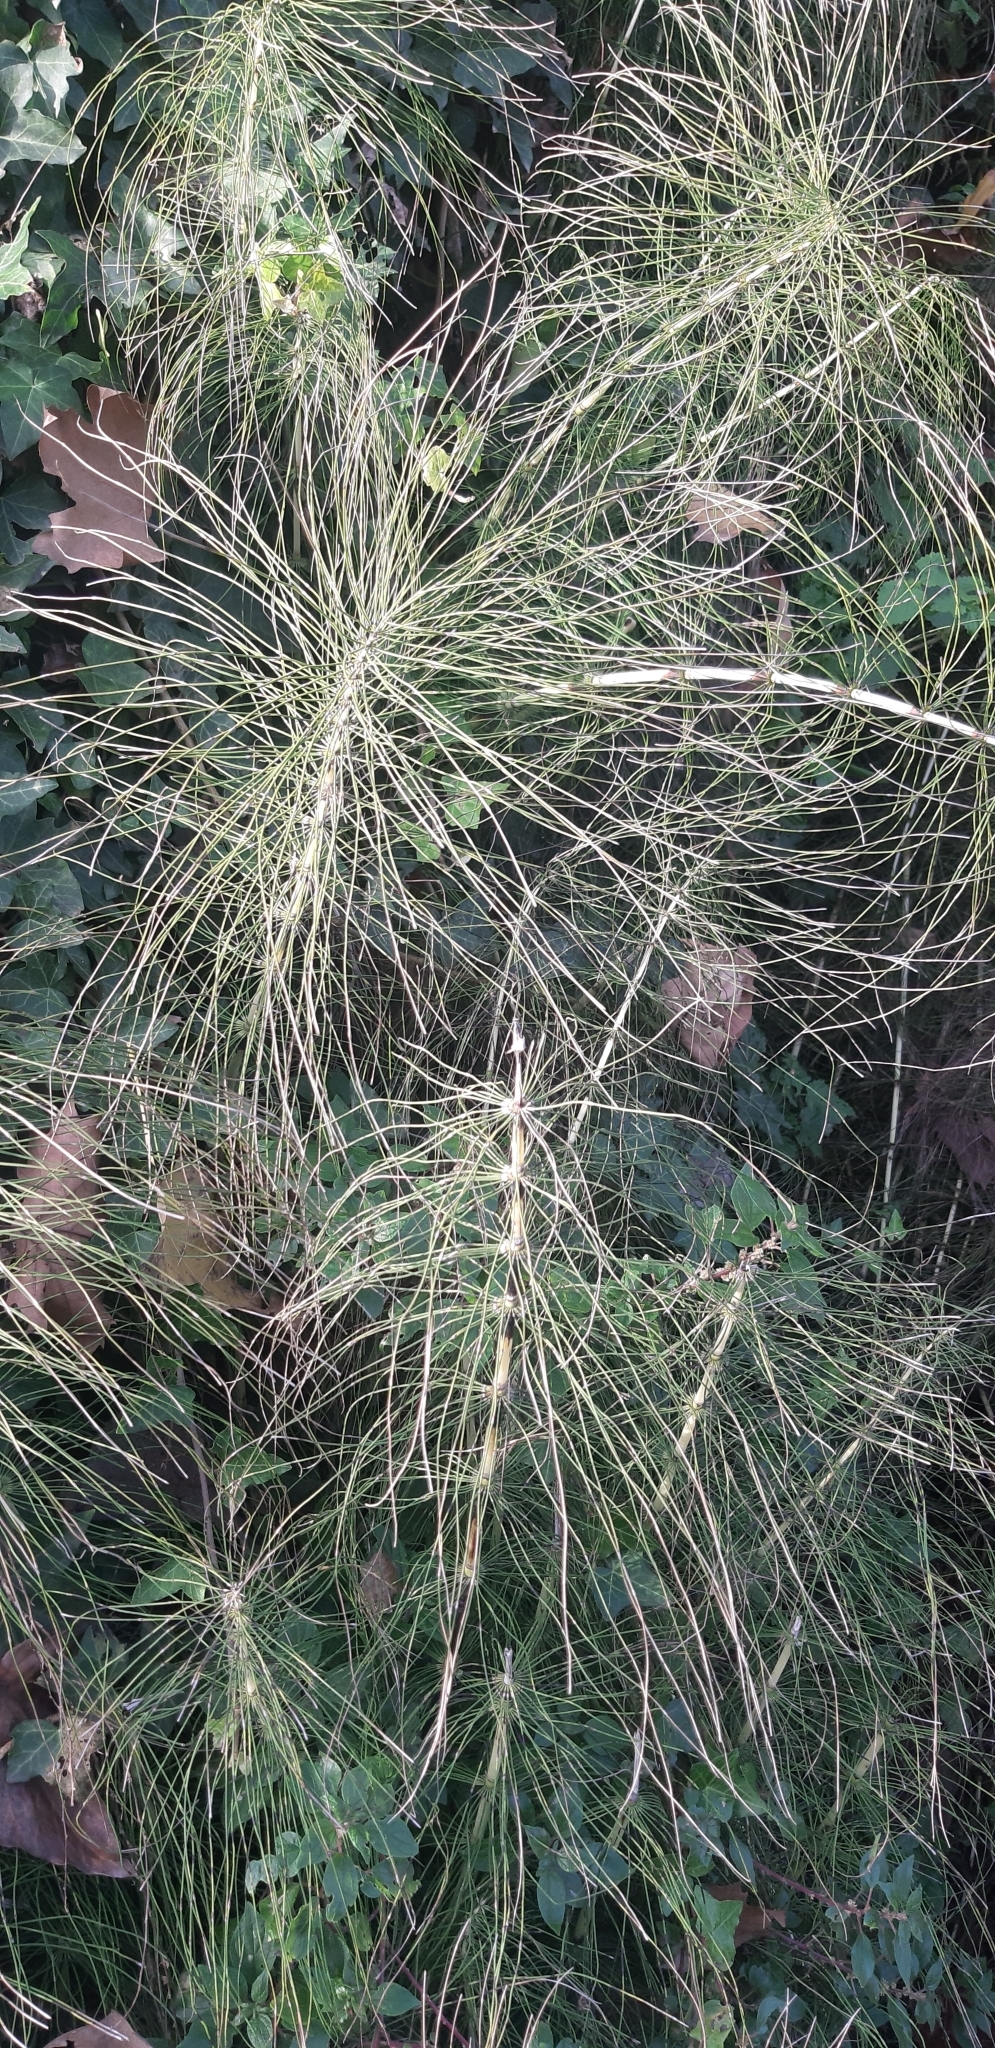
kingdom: Plantae
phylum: Tracheophyta
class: Polypodiopsida
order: Equisetales
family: Equisetaceae
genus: Equisetum
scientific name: Equisetum telmateia
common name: Great horsetail
